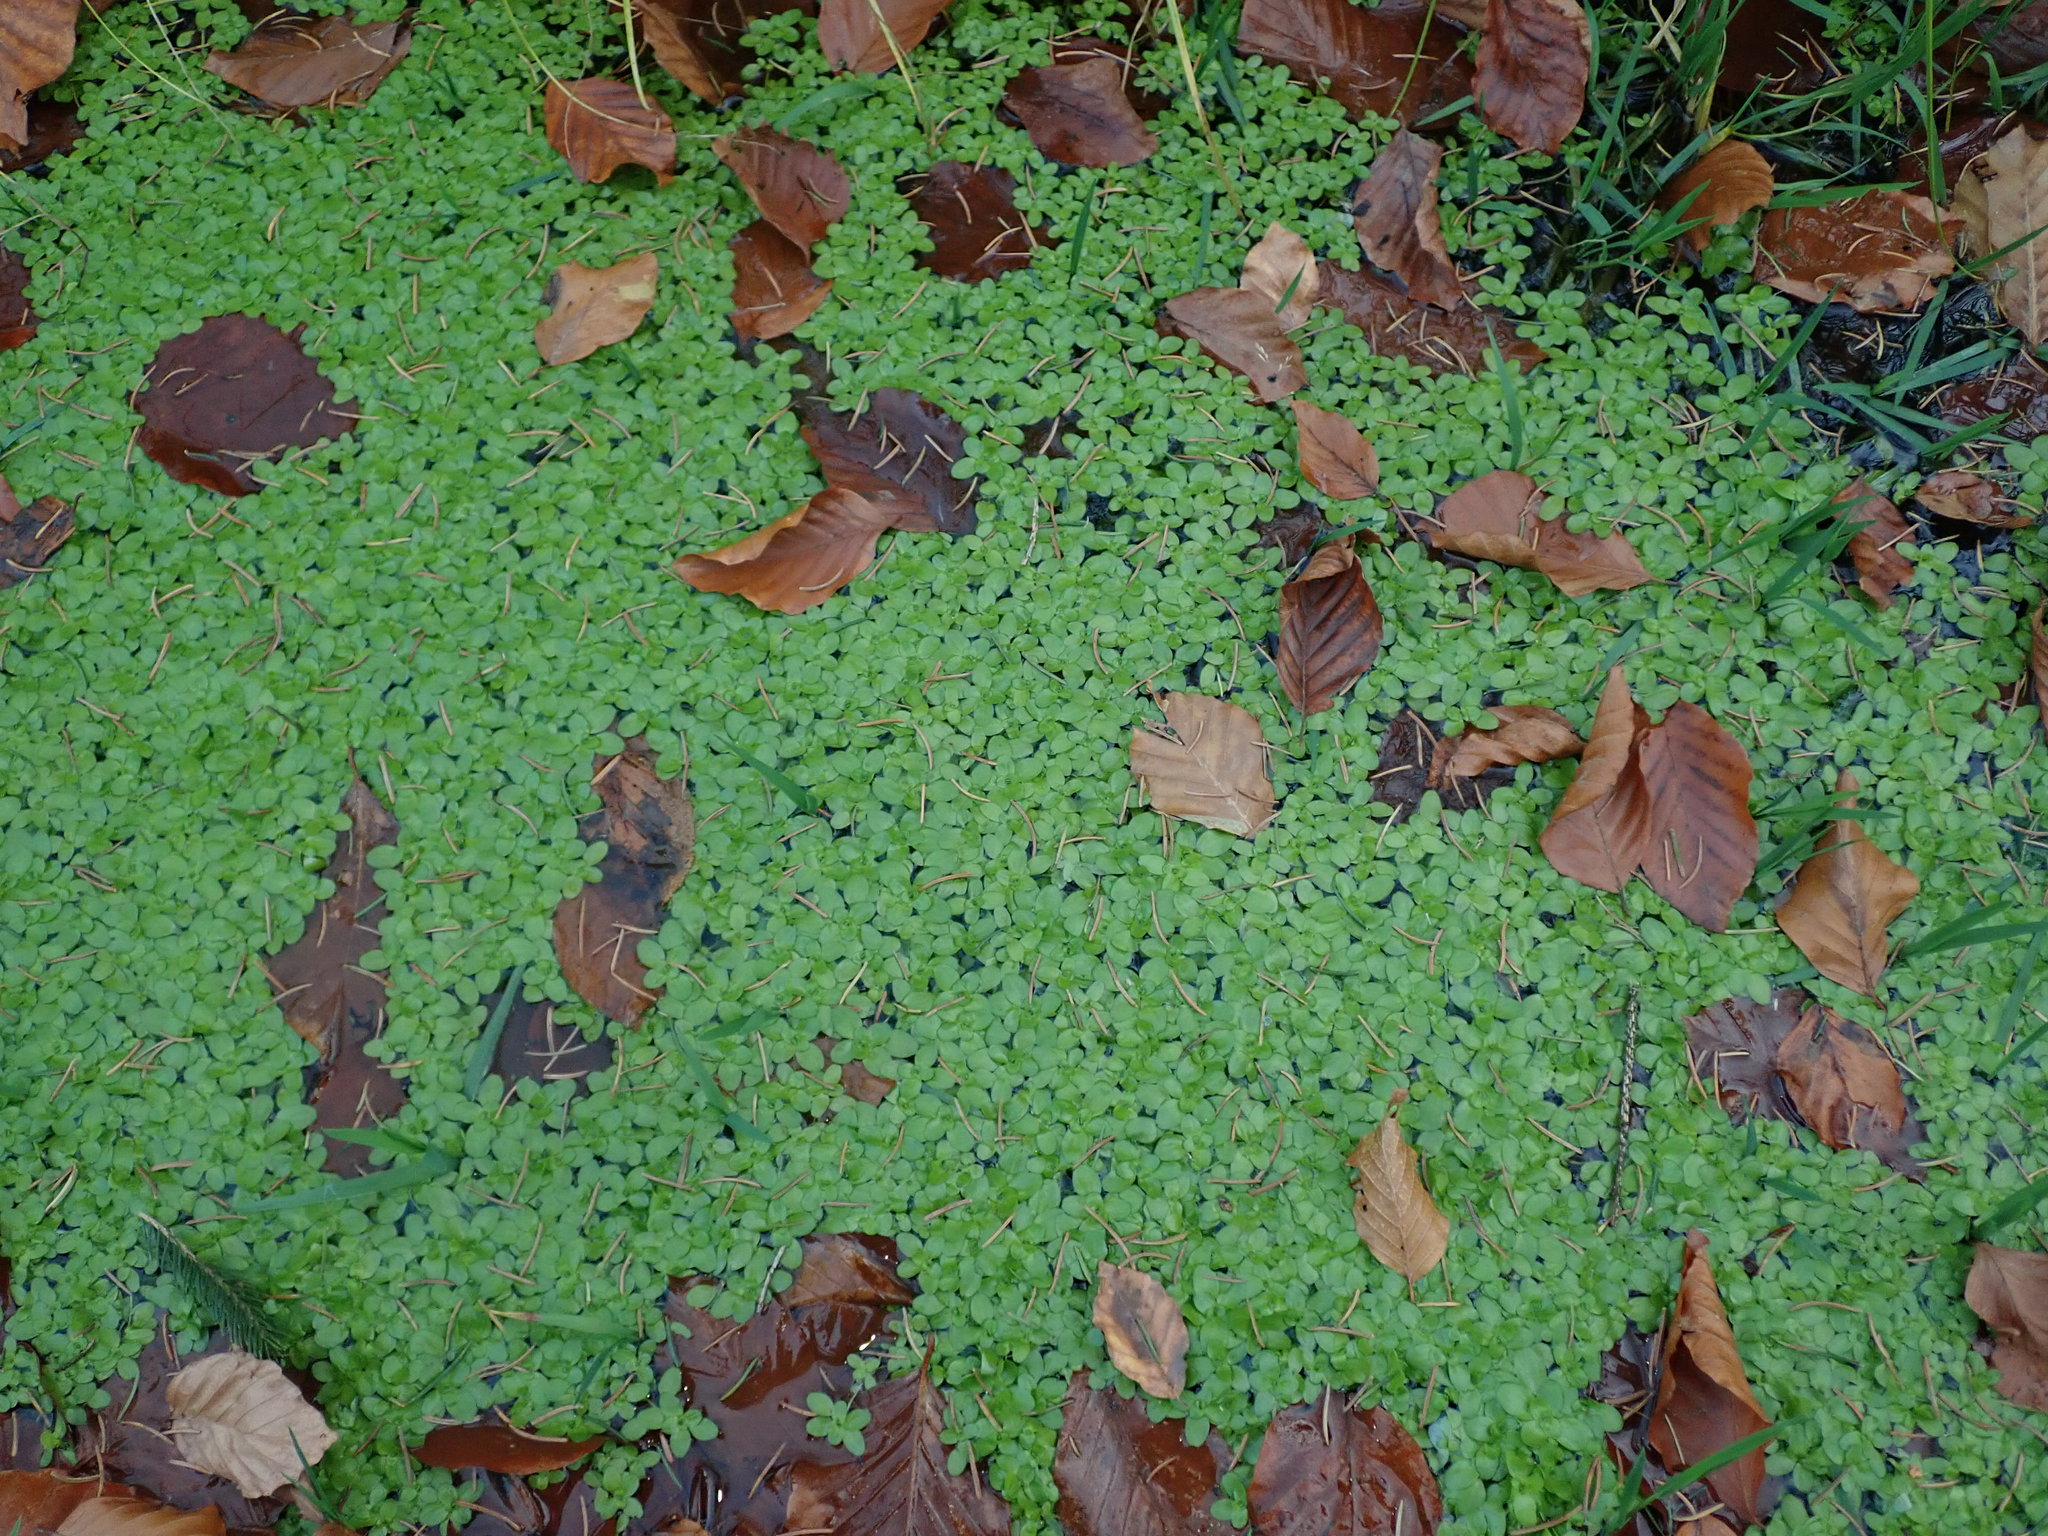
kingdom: Plantae
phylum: Tracheophyta
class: Magnoliopsida
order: Lamiales
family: Plantaginaceae
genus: Callitriche
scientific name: Callitriche stagnalis
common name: Common water-starwort
